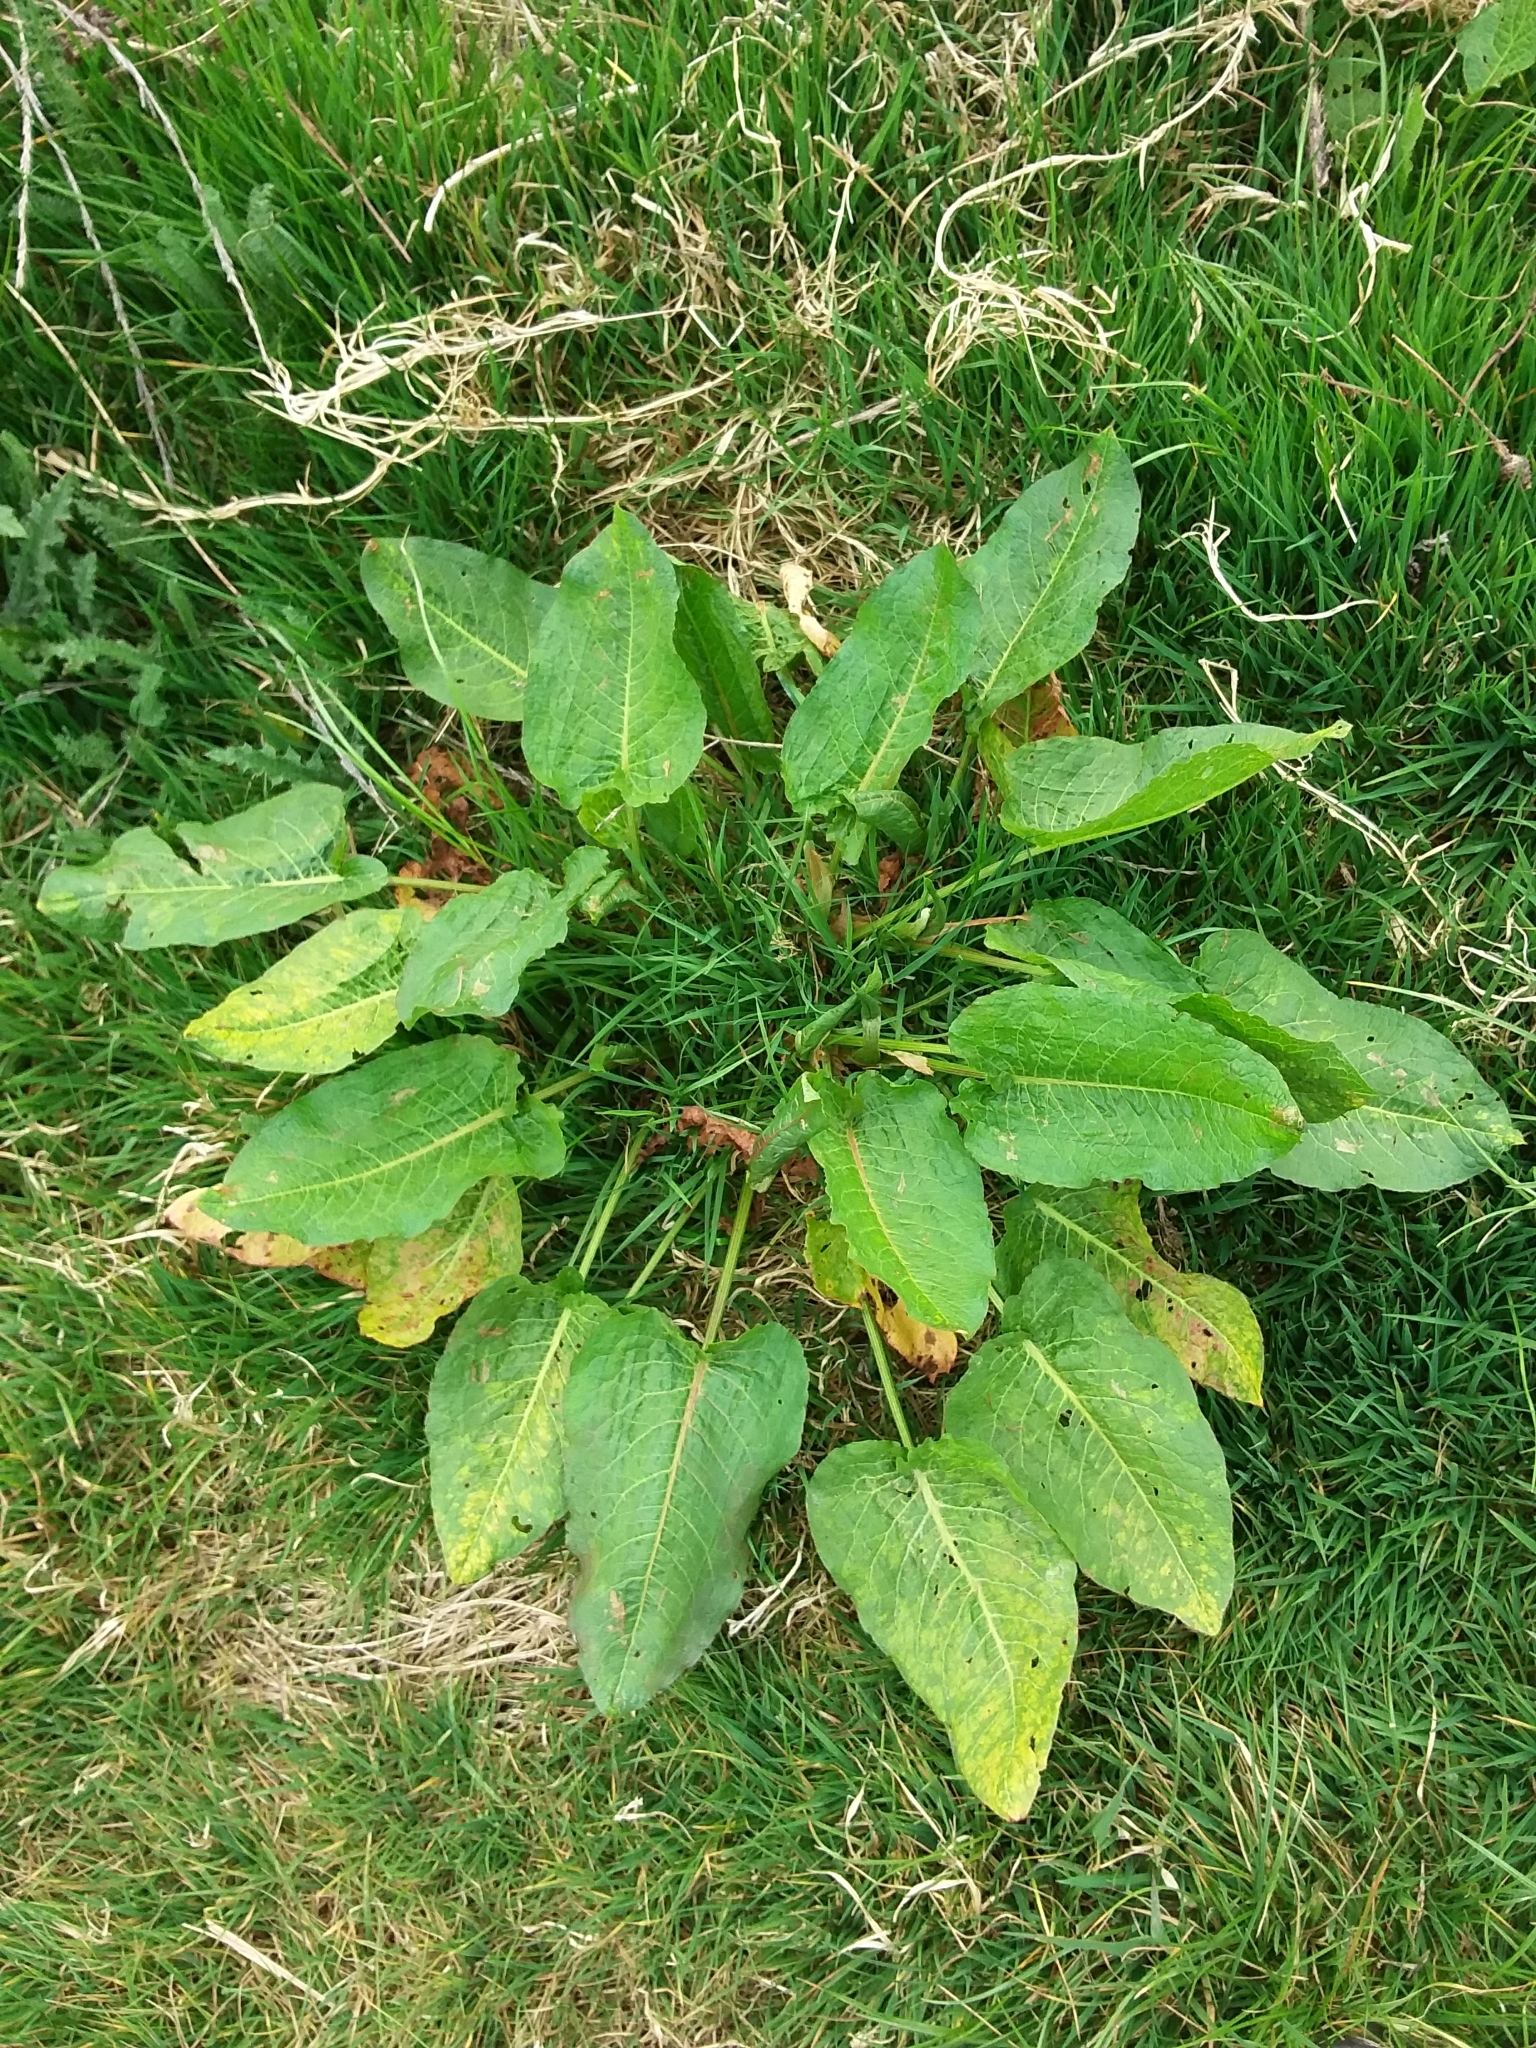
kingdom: Plantae
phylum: Tracheophyta
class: Magnoliopsida
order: Caryophyllales
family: Polygonaceae
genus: Rumex
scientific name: Rumex obtusifolius
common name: Bitter dock
